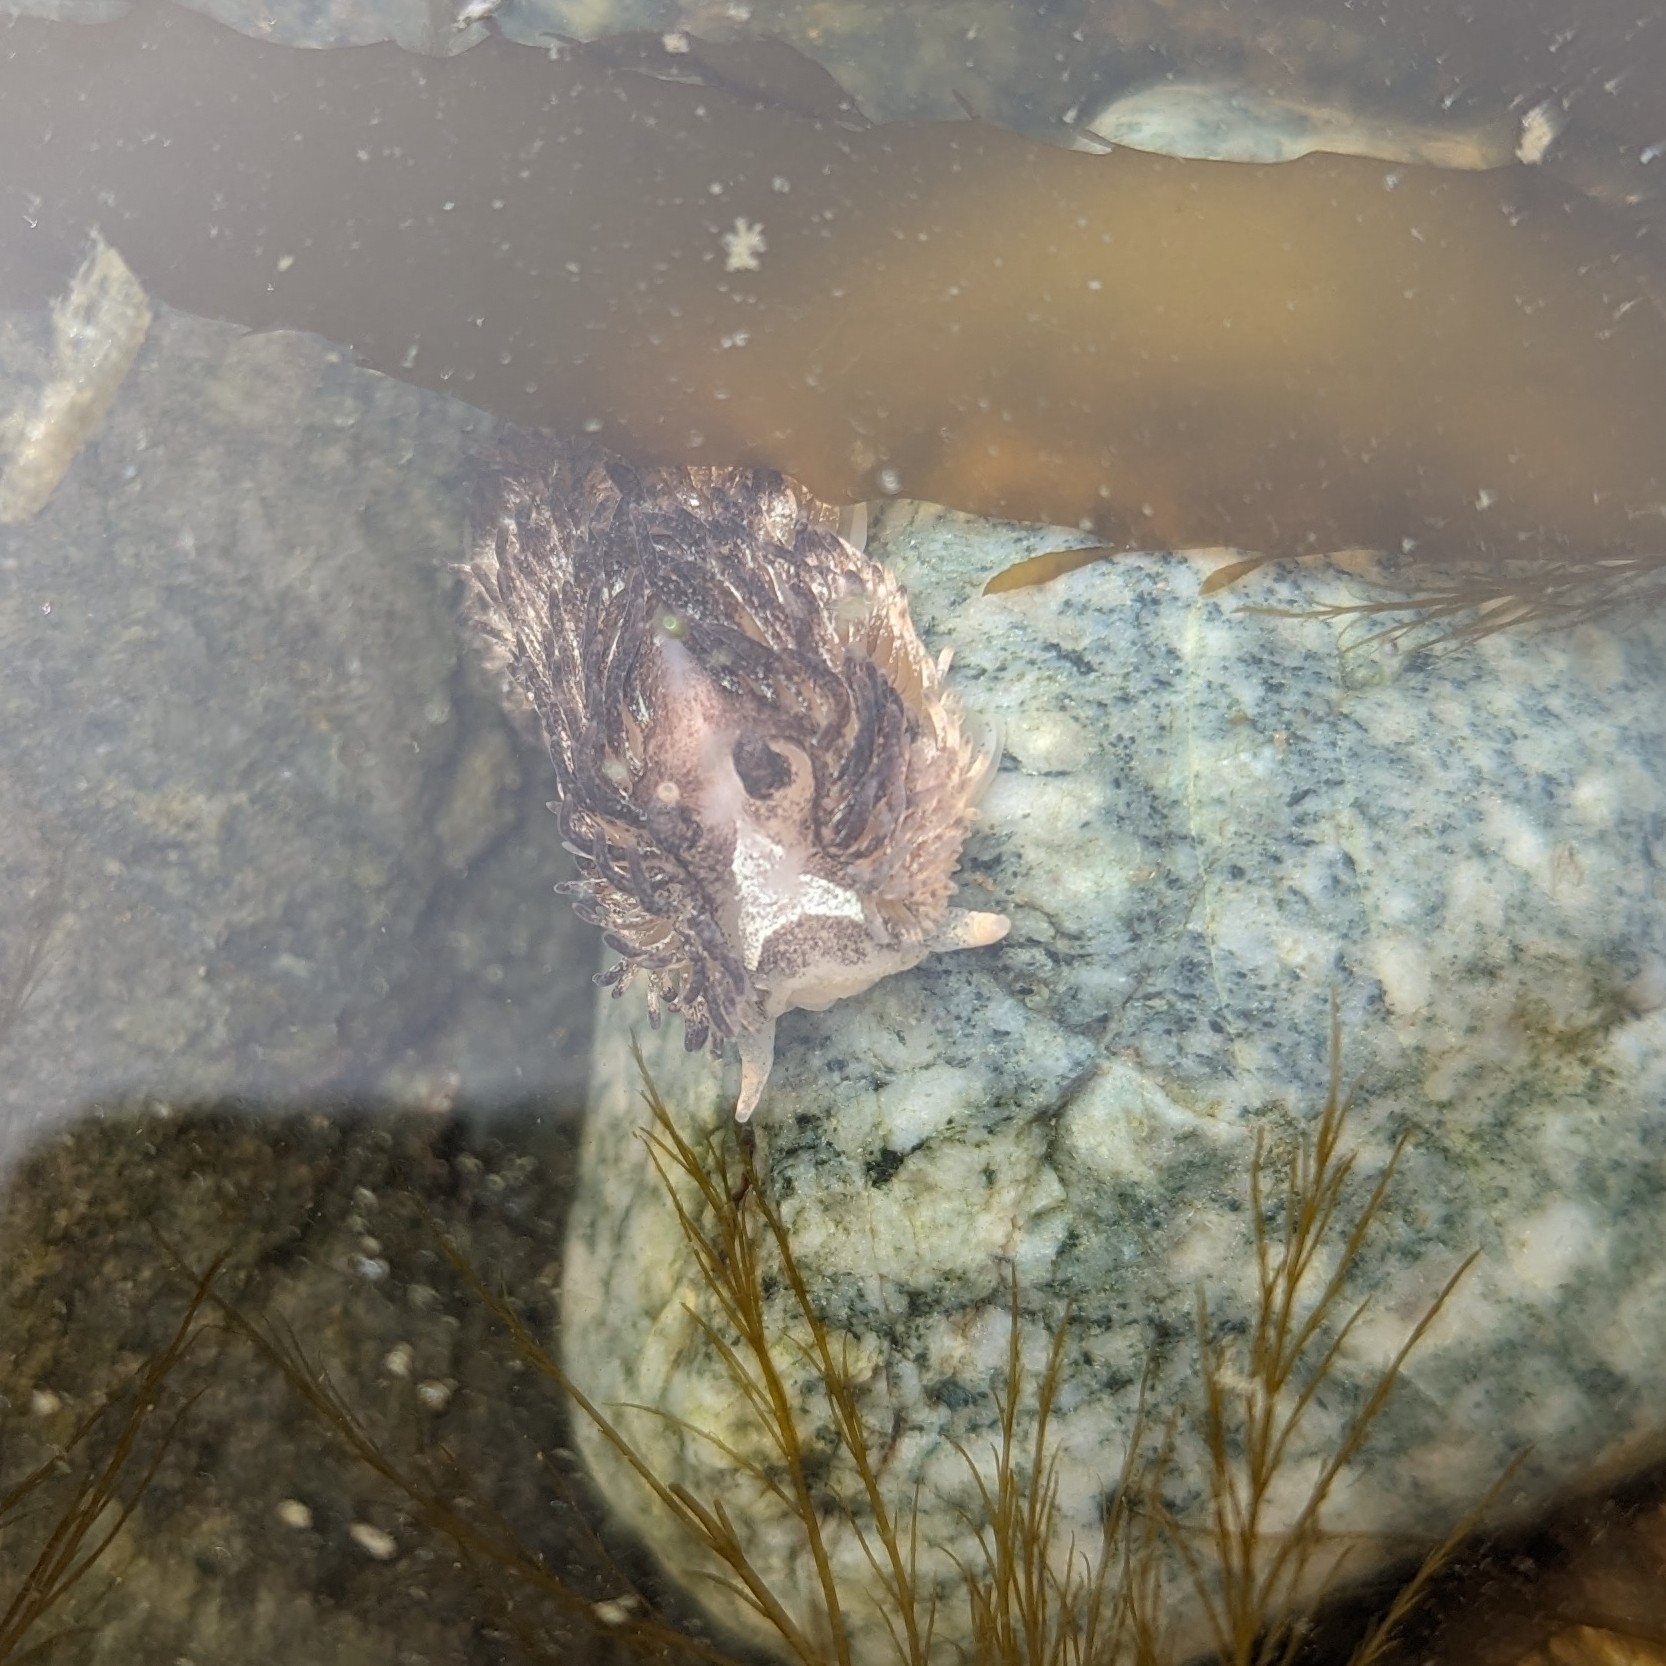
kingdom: Animalia
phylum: Mollusca
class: Gastropoda
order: Nudibranchia
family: Aeolidiidae
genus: Aeolidia
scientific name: Aeolidia papillosa
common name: Common grey sea slug
